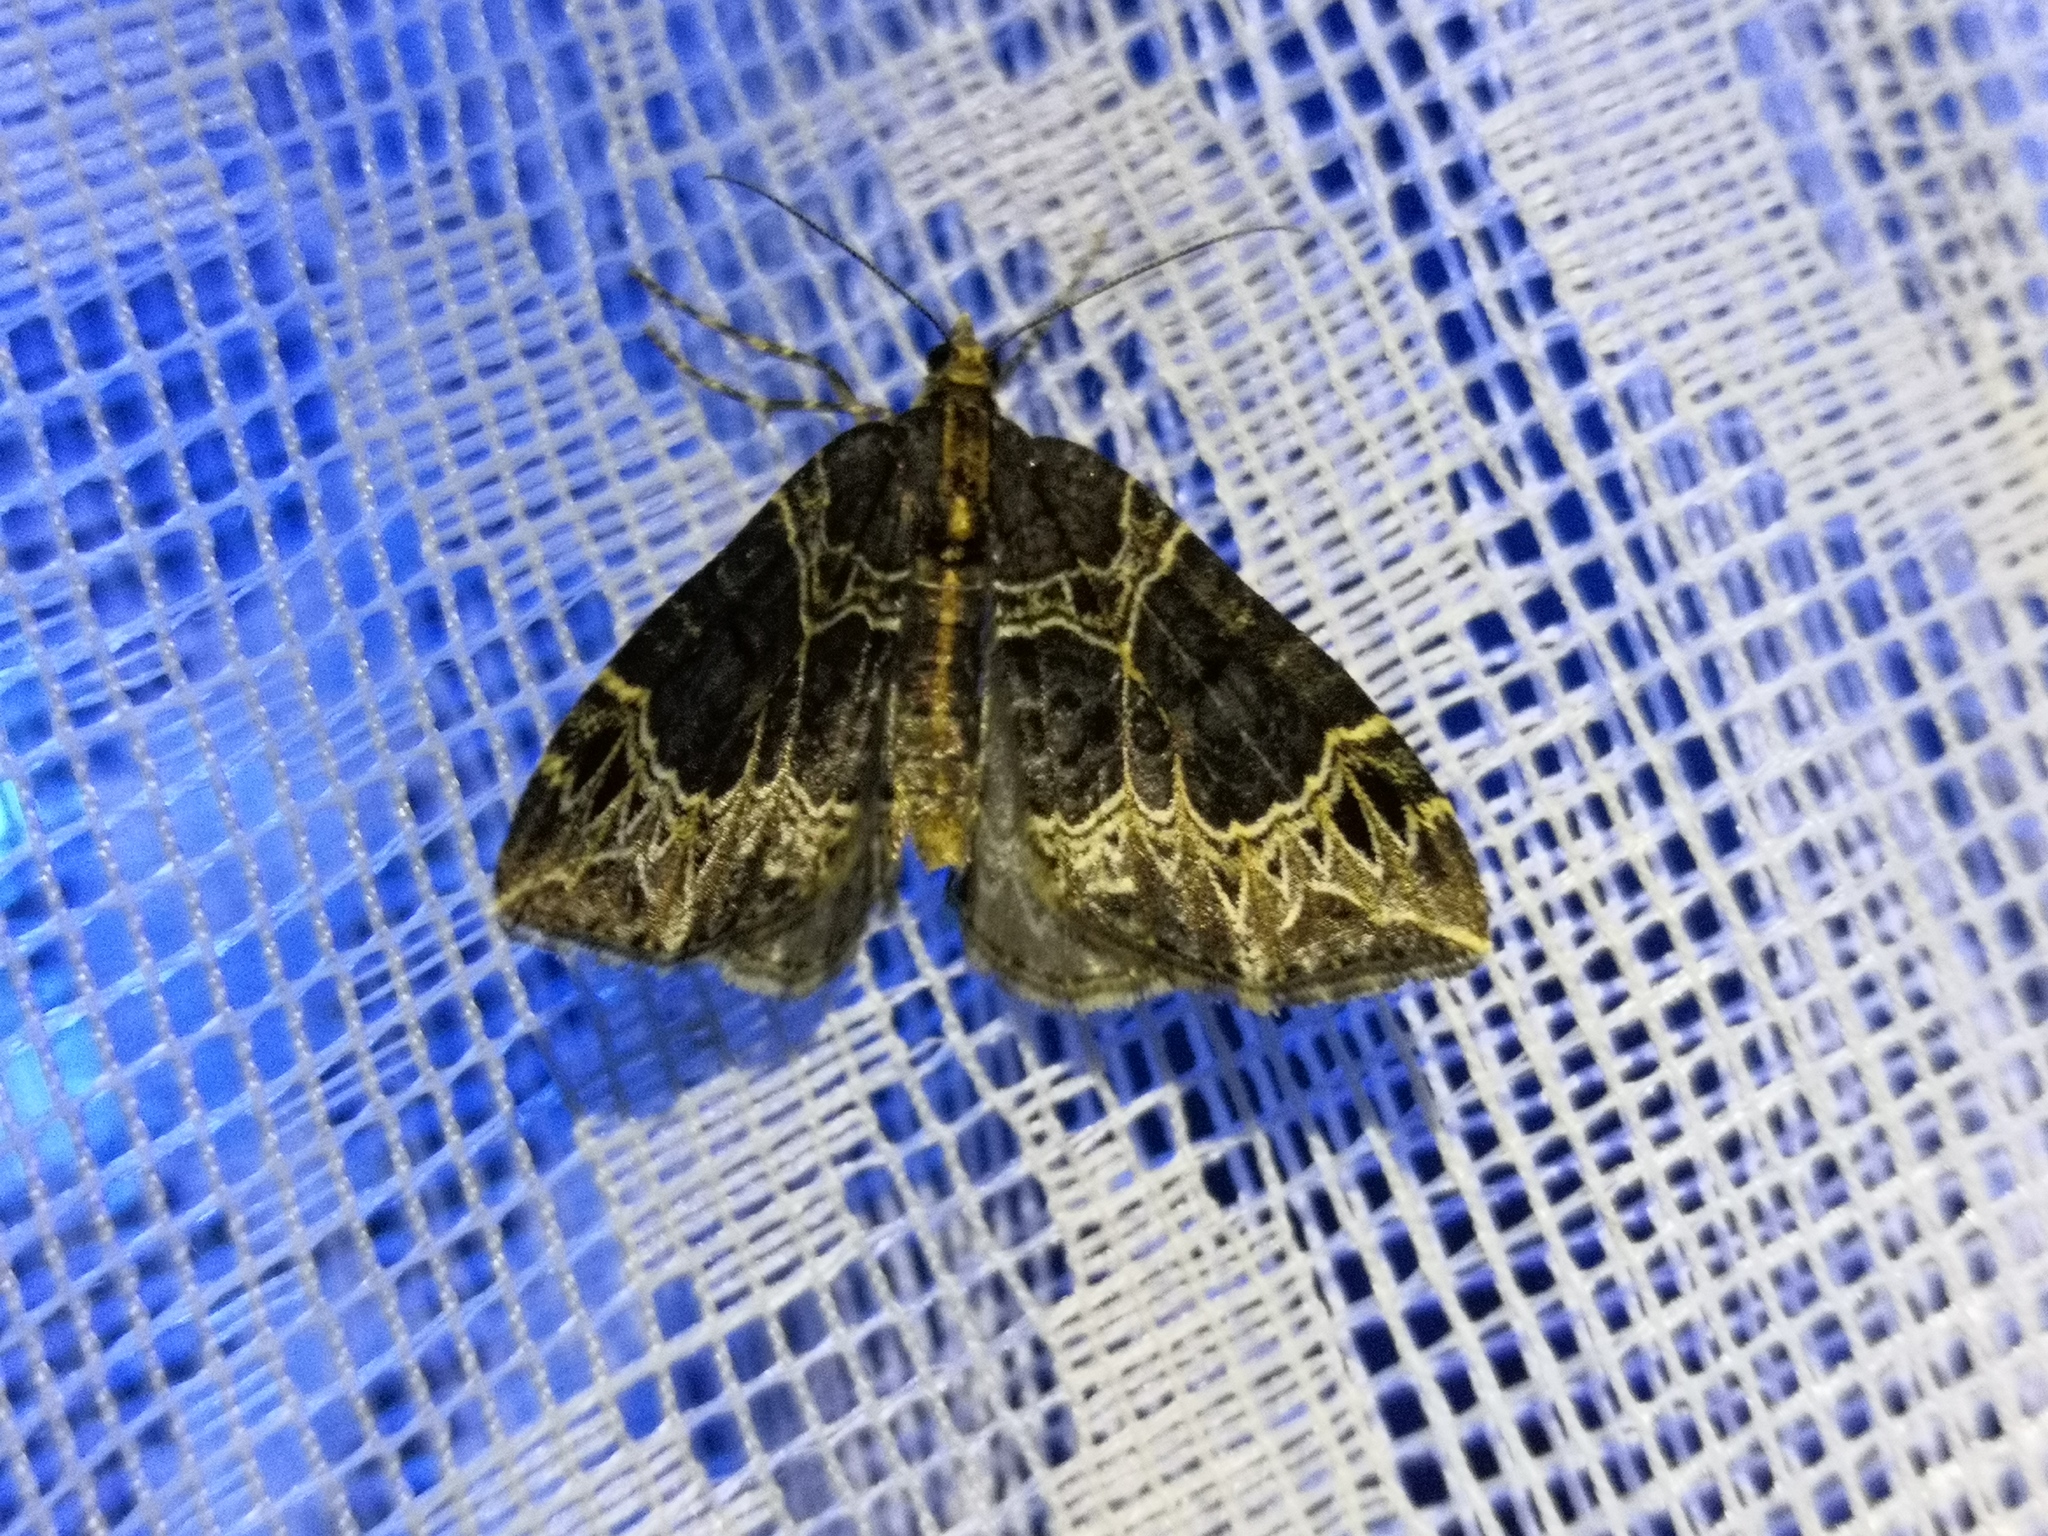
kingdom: Animalia
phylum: Arthropoda
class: Insecta
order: Lepidoptera
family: Geometridae
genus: Ecliptopera
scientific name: Ecliptopera silaceata
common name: Small phoenix
